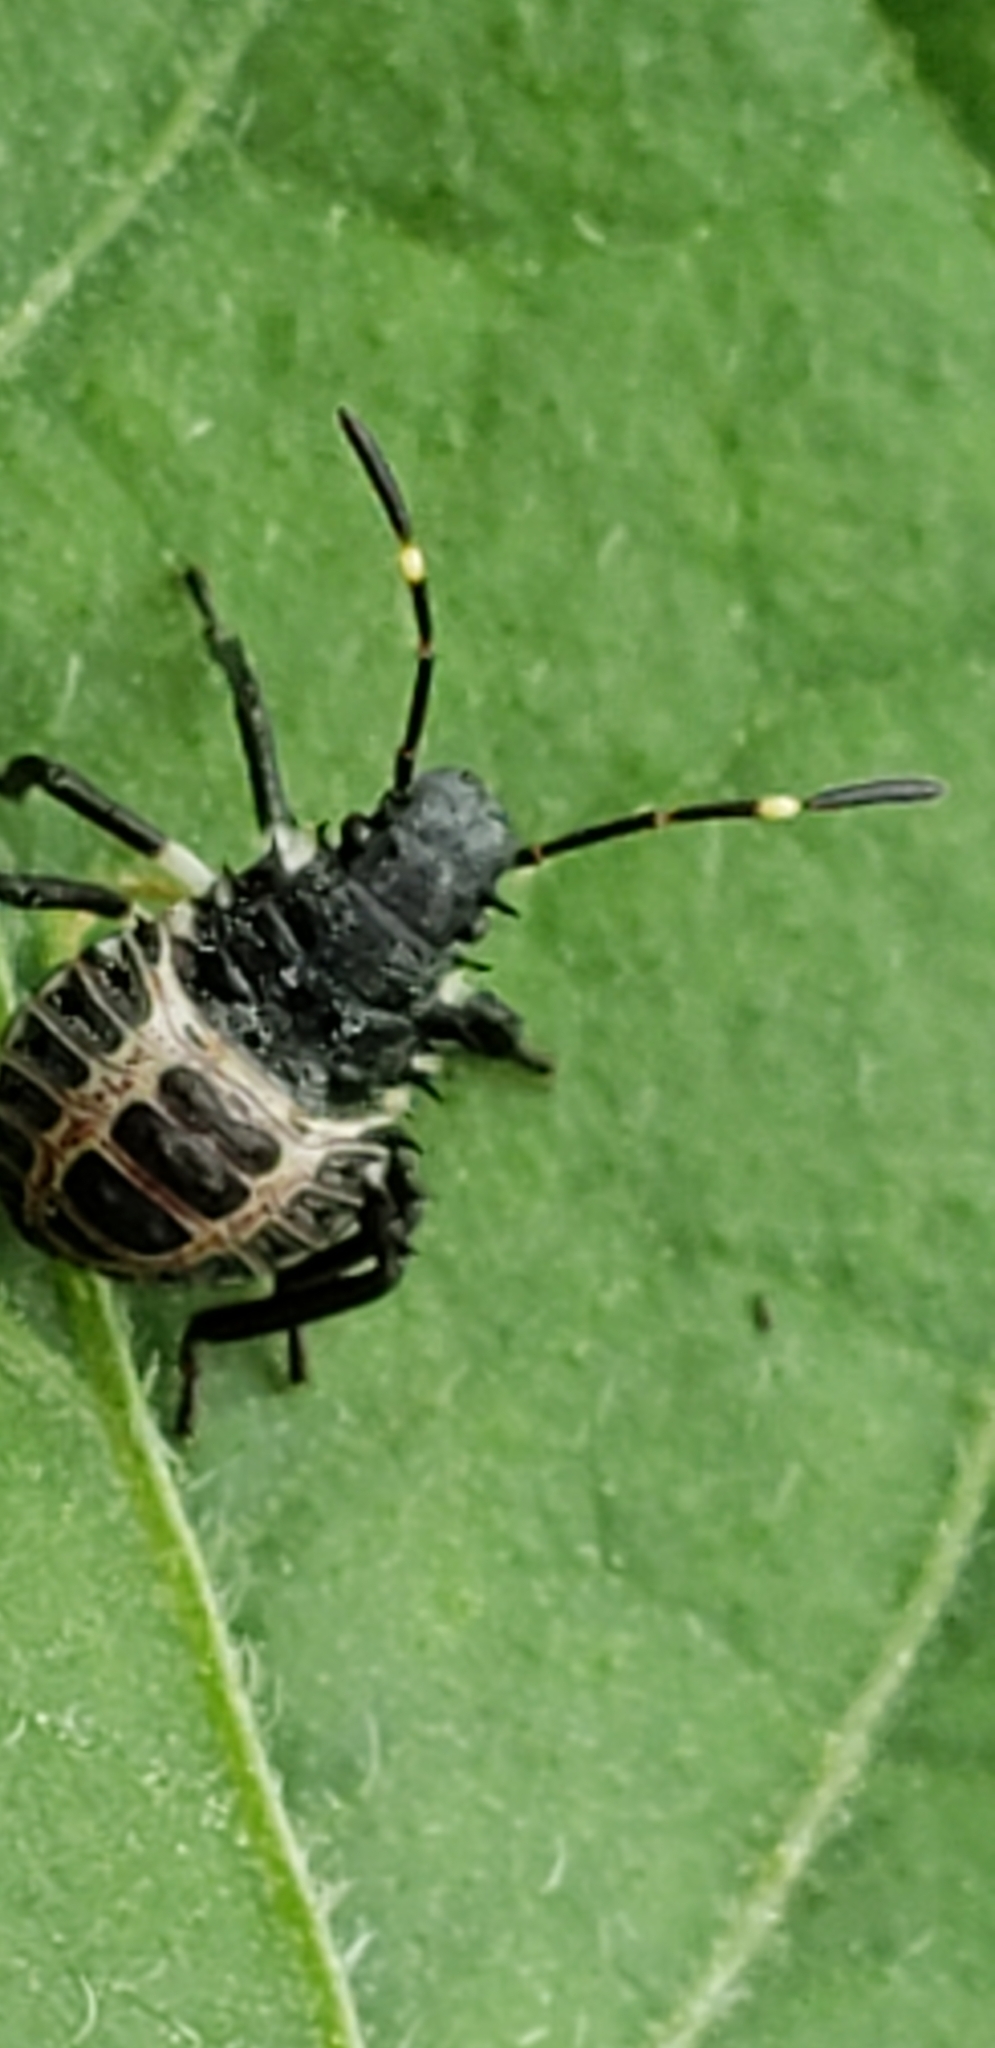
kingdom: Animalia
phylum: Arthropoda
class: Insecta
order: Hemiptera
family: Pentatomidae
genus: Halyomorpha
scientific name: Halyomorpha halys
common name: Brown marmorated stink bug
